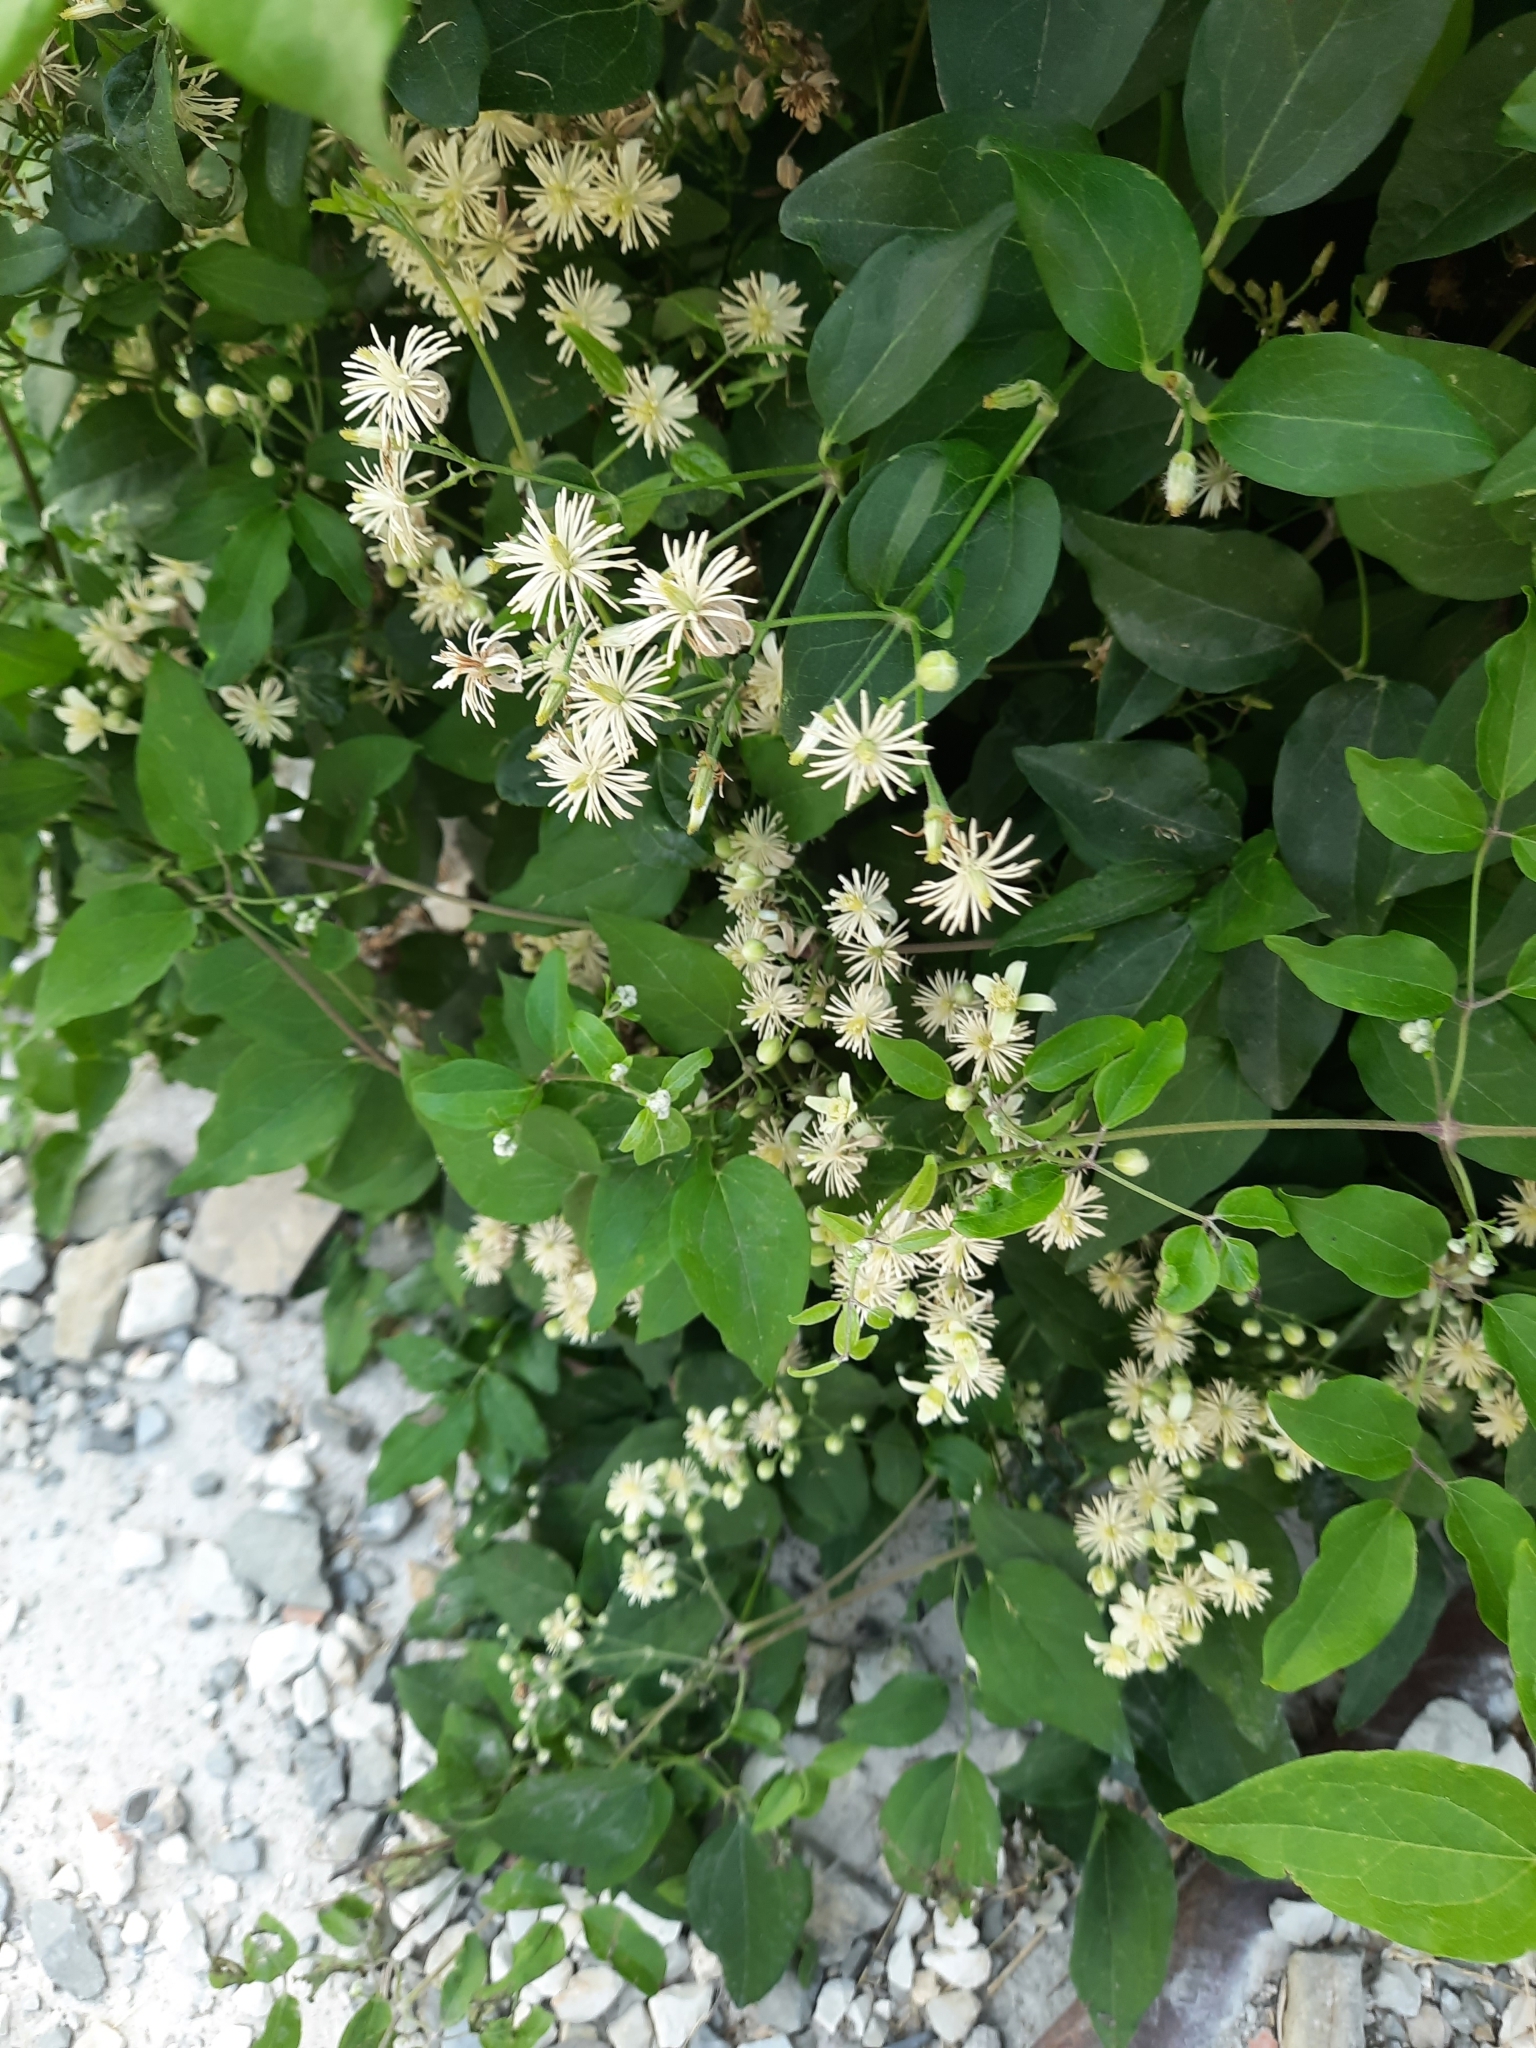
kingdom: Plantae
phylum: Tracheophyta
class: Magnoliopsida
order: Ranunculales
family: Ranunculaceae
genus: Clematis
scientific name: Clematis vitalba
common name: Evergreen clematis
